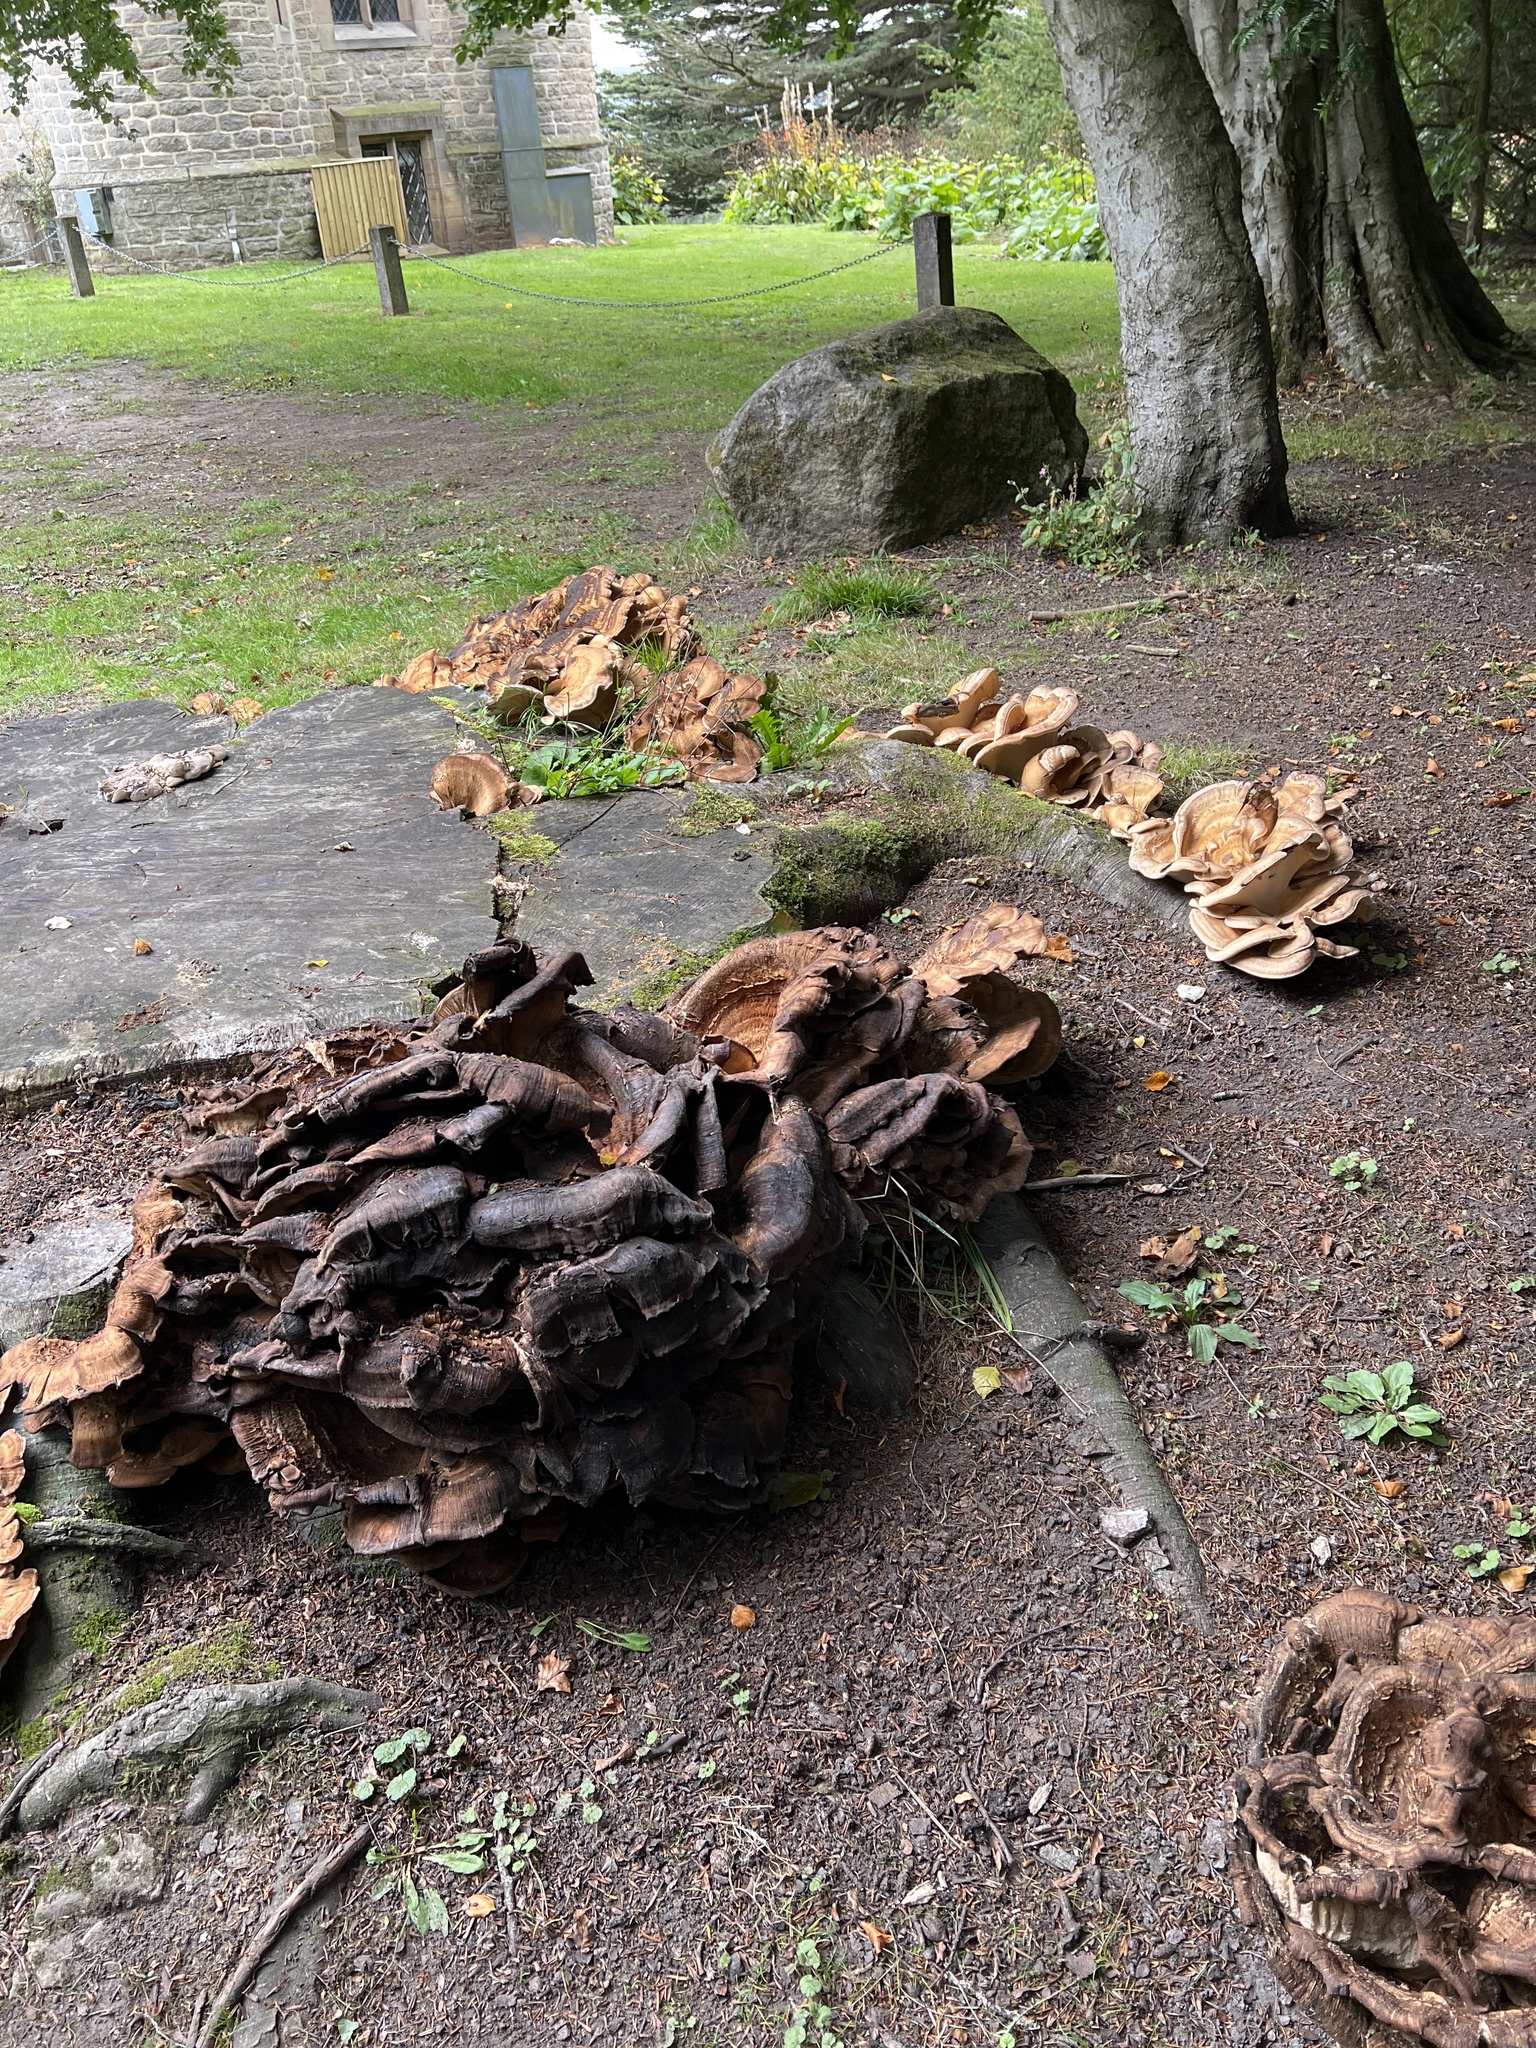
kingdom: Fungi
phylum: Basidiomycota
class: Agaricomycetes
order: Polyporales
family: Meripilaceae
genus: Meripilus
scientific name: Meripilus giganteus
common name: Giant polypore
